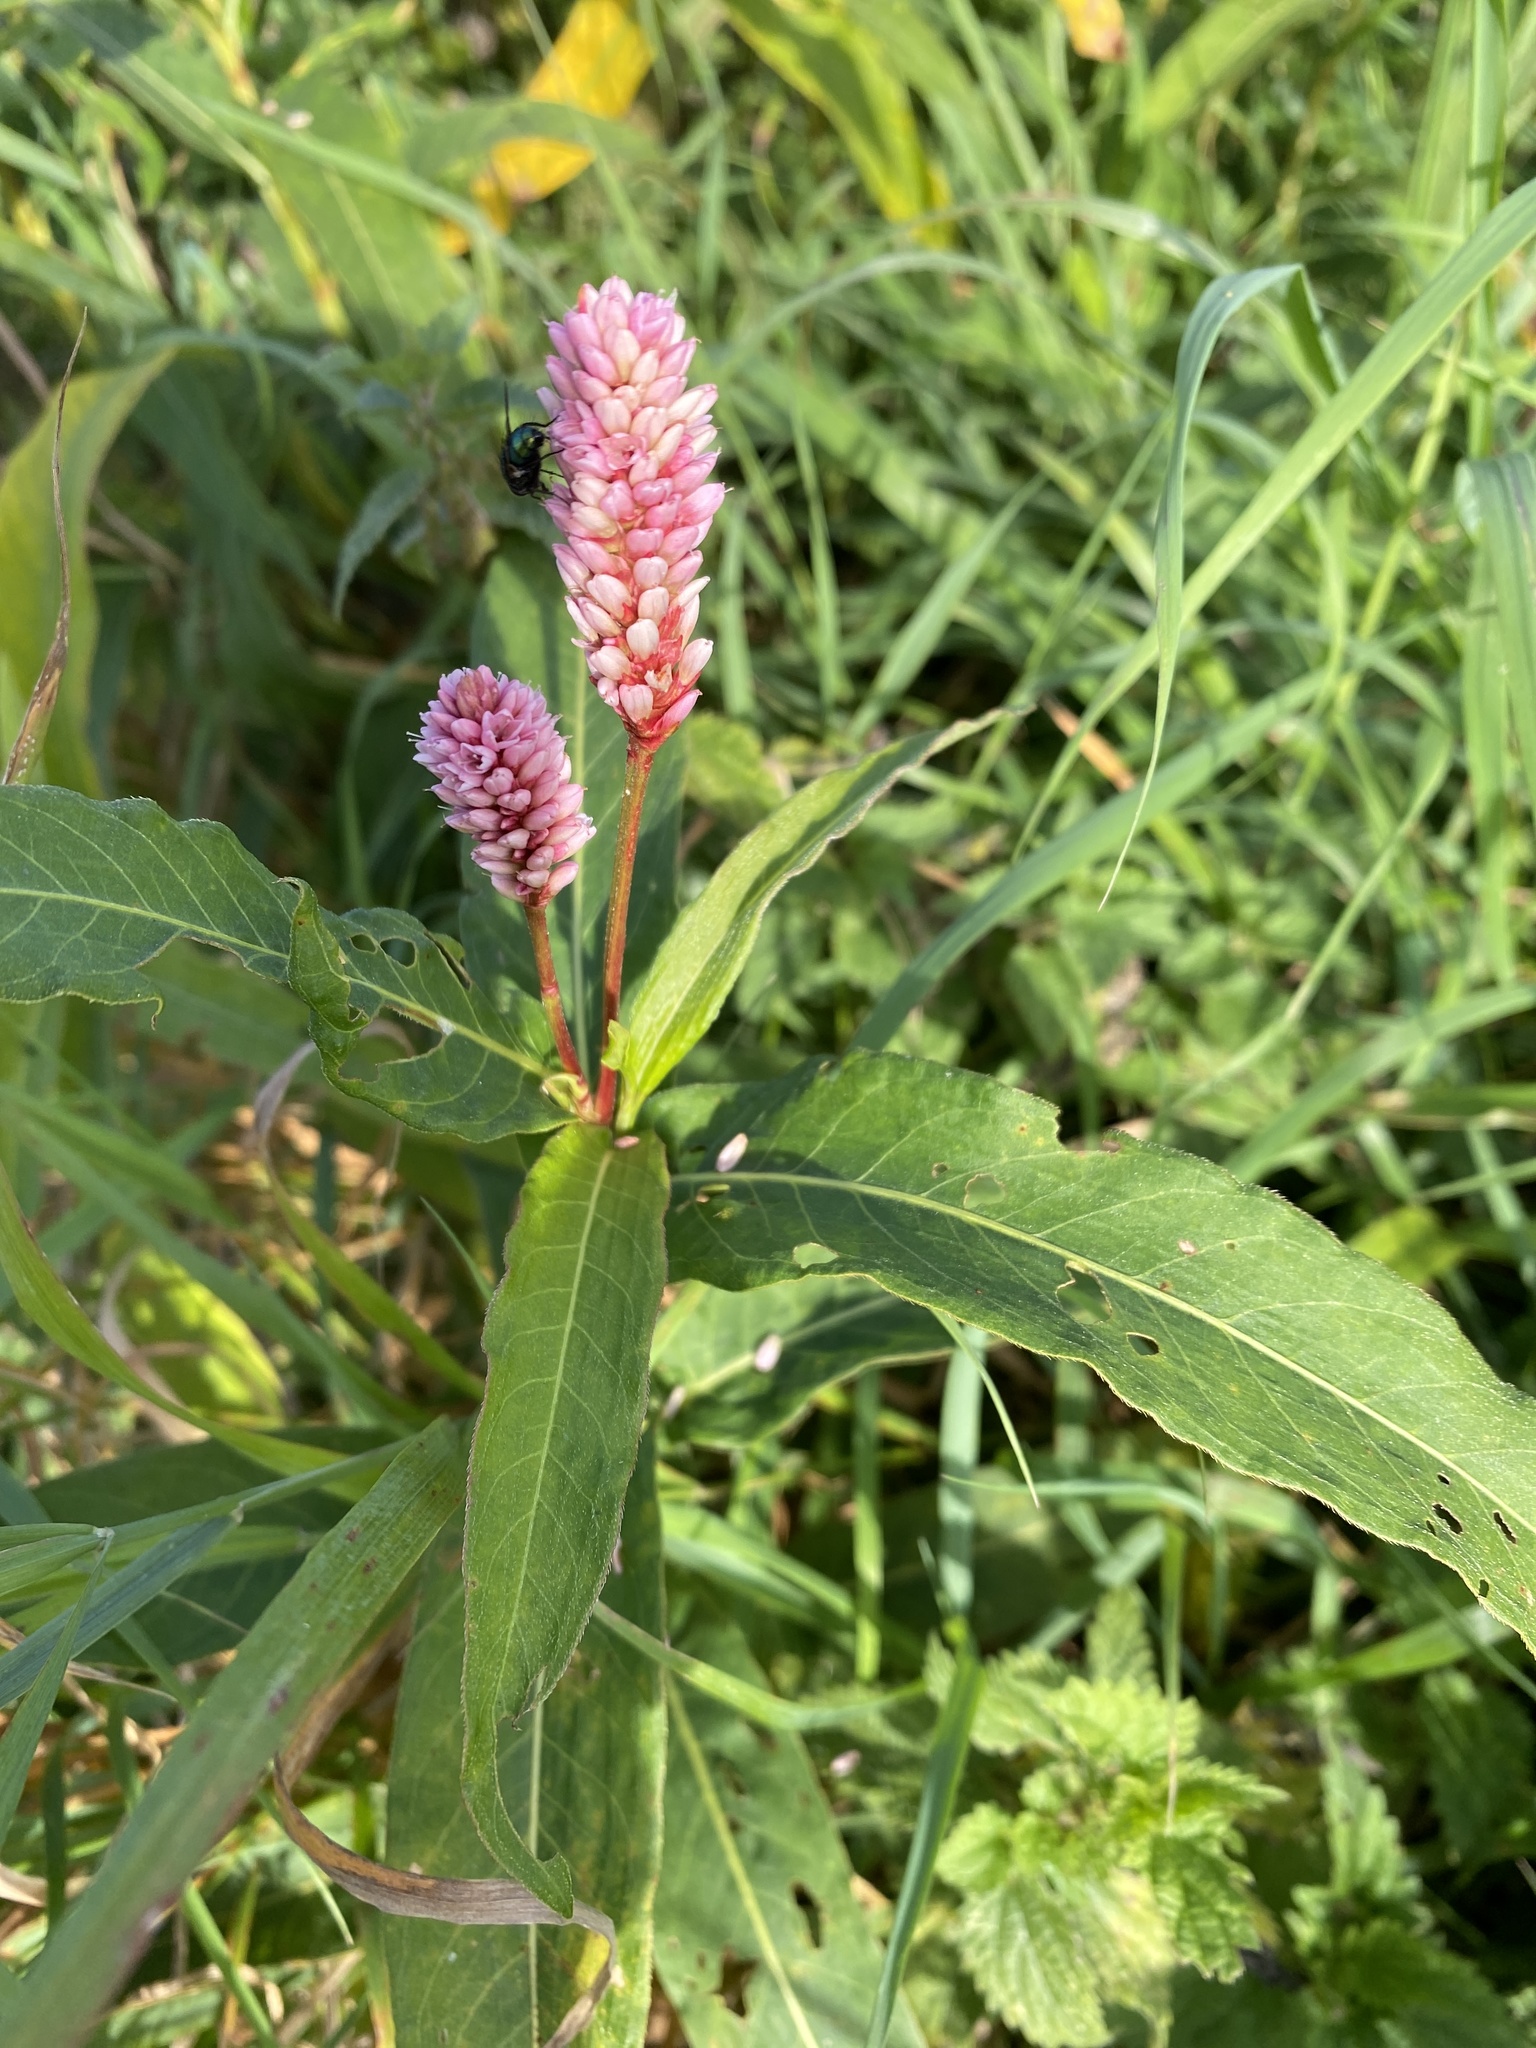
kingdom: Plantae
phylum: Tracheophyta
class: Magnoliopsida
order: Caryophyllales
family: Polygonaceae
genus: Persicaria
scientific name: Persicaria maculosa
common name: Redshank
